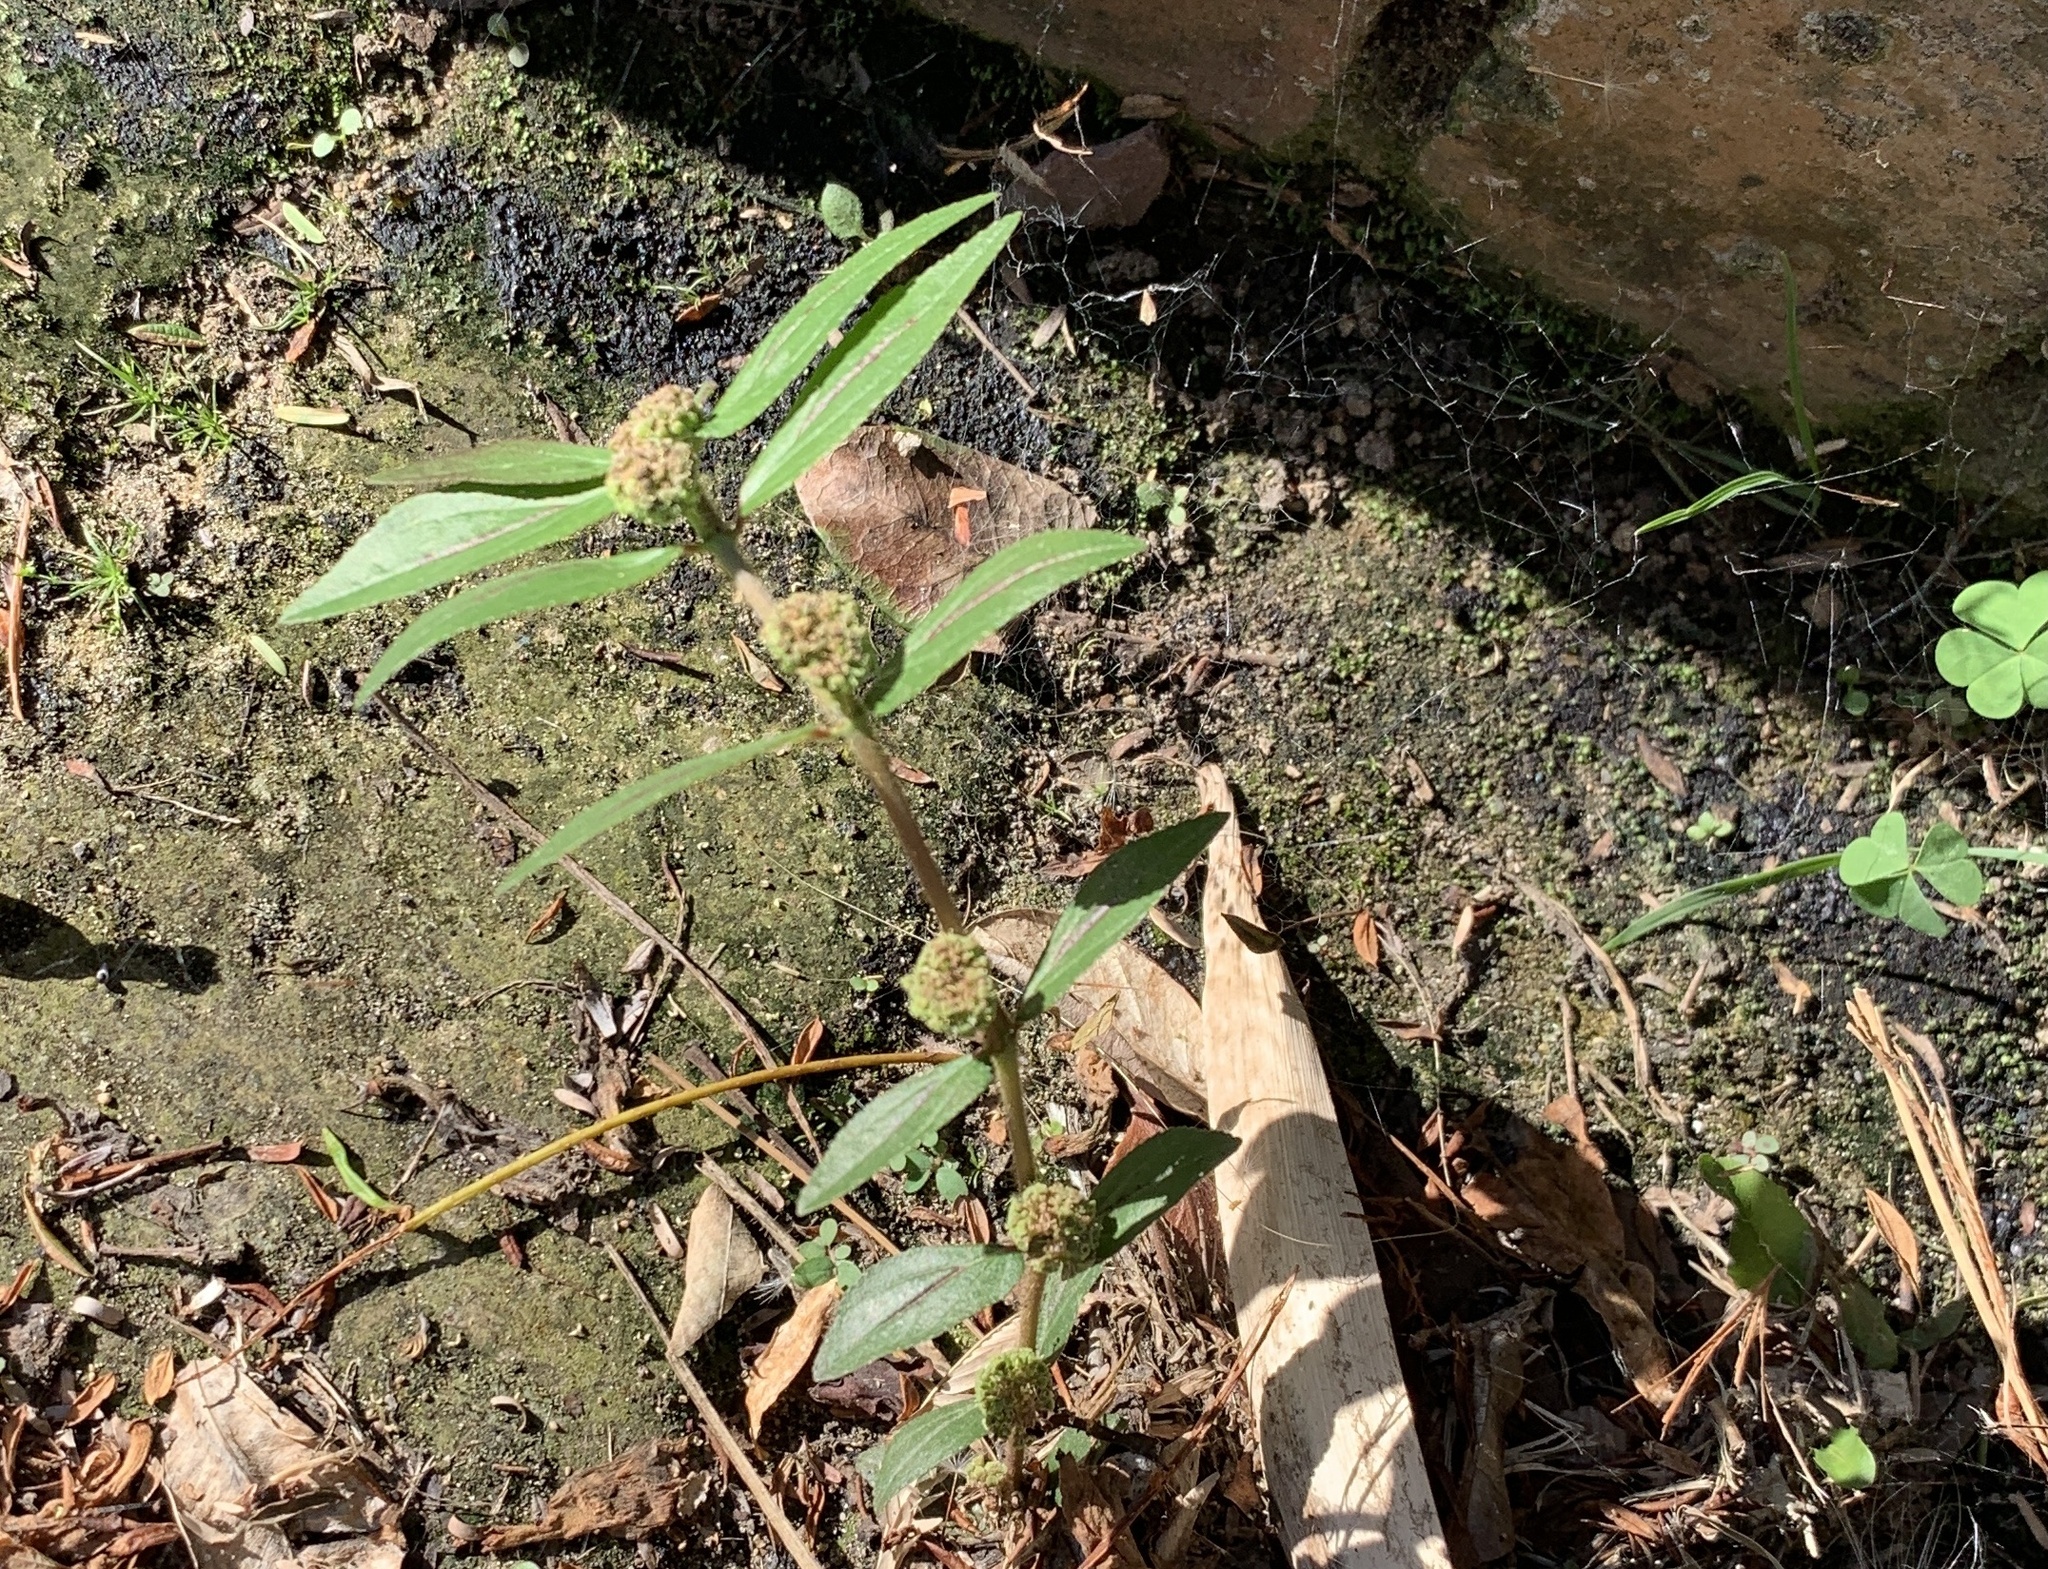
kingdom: Plantae
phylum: Tracheophyta
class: Magnoliopsida
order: Malpighiales
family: Euphorbiaceae
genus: Euphorbia
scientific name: Euphorbia hirta
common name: Pillpod sandmat
